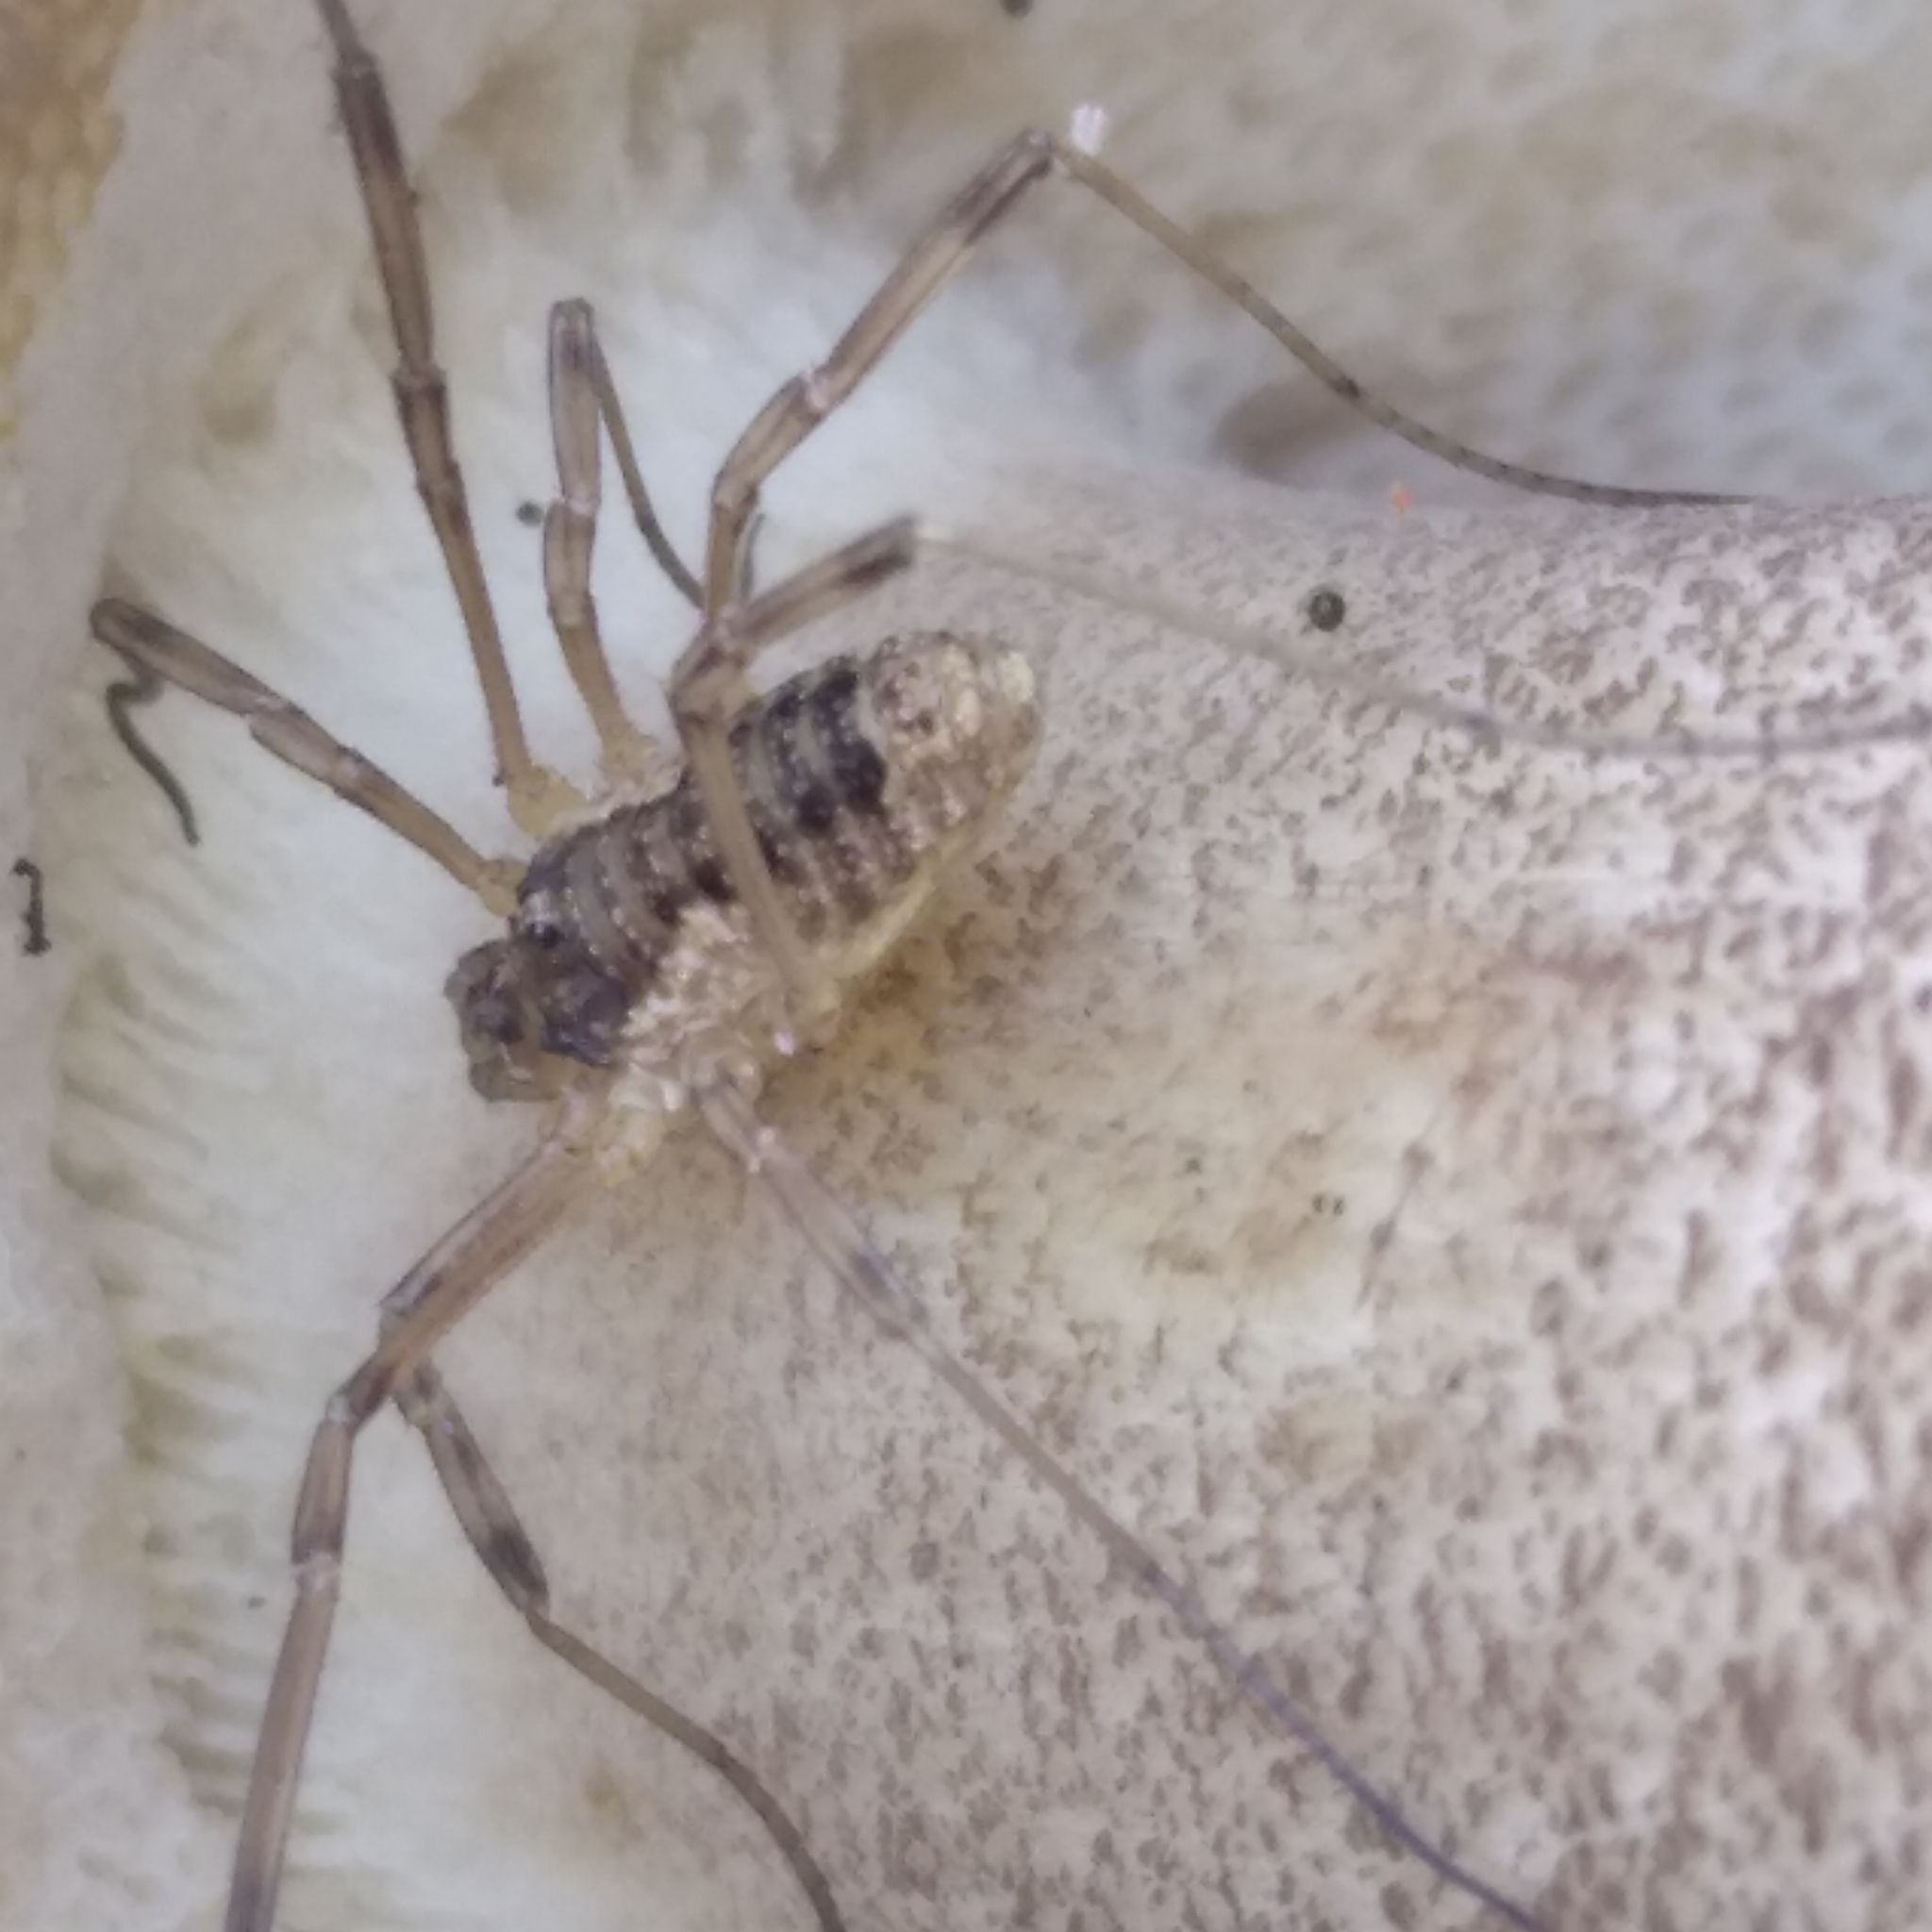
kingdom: Animalia
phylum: Arthropoda
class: Arachnida
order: Opiliones
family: Phalangiidae
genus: Oligolophus
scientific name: Oligolophus tridens
